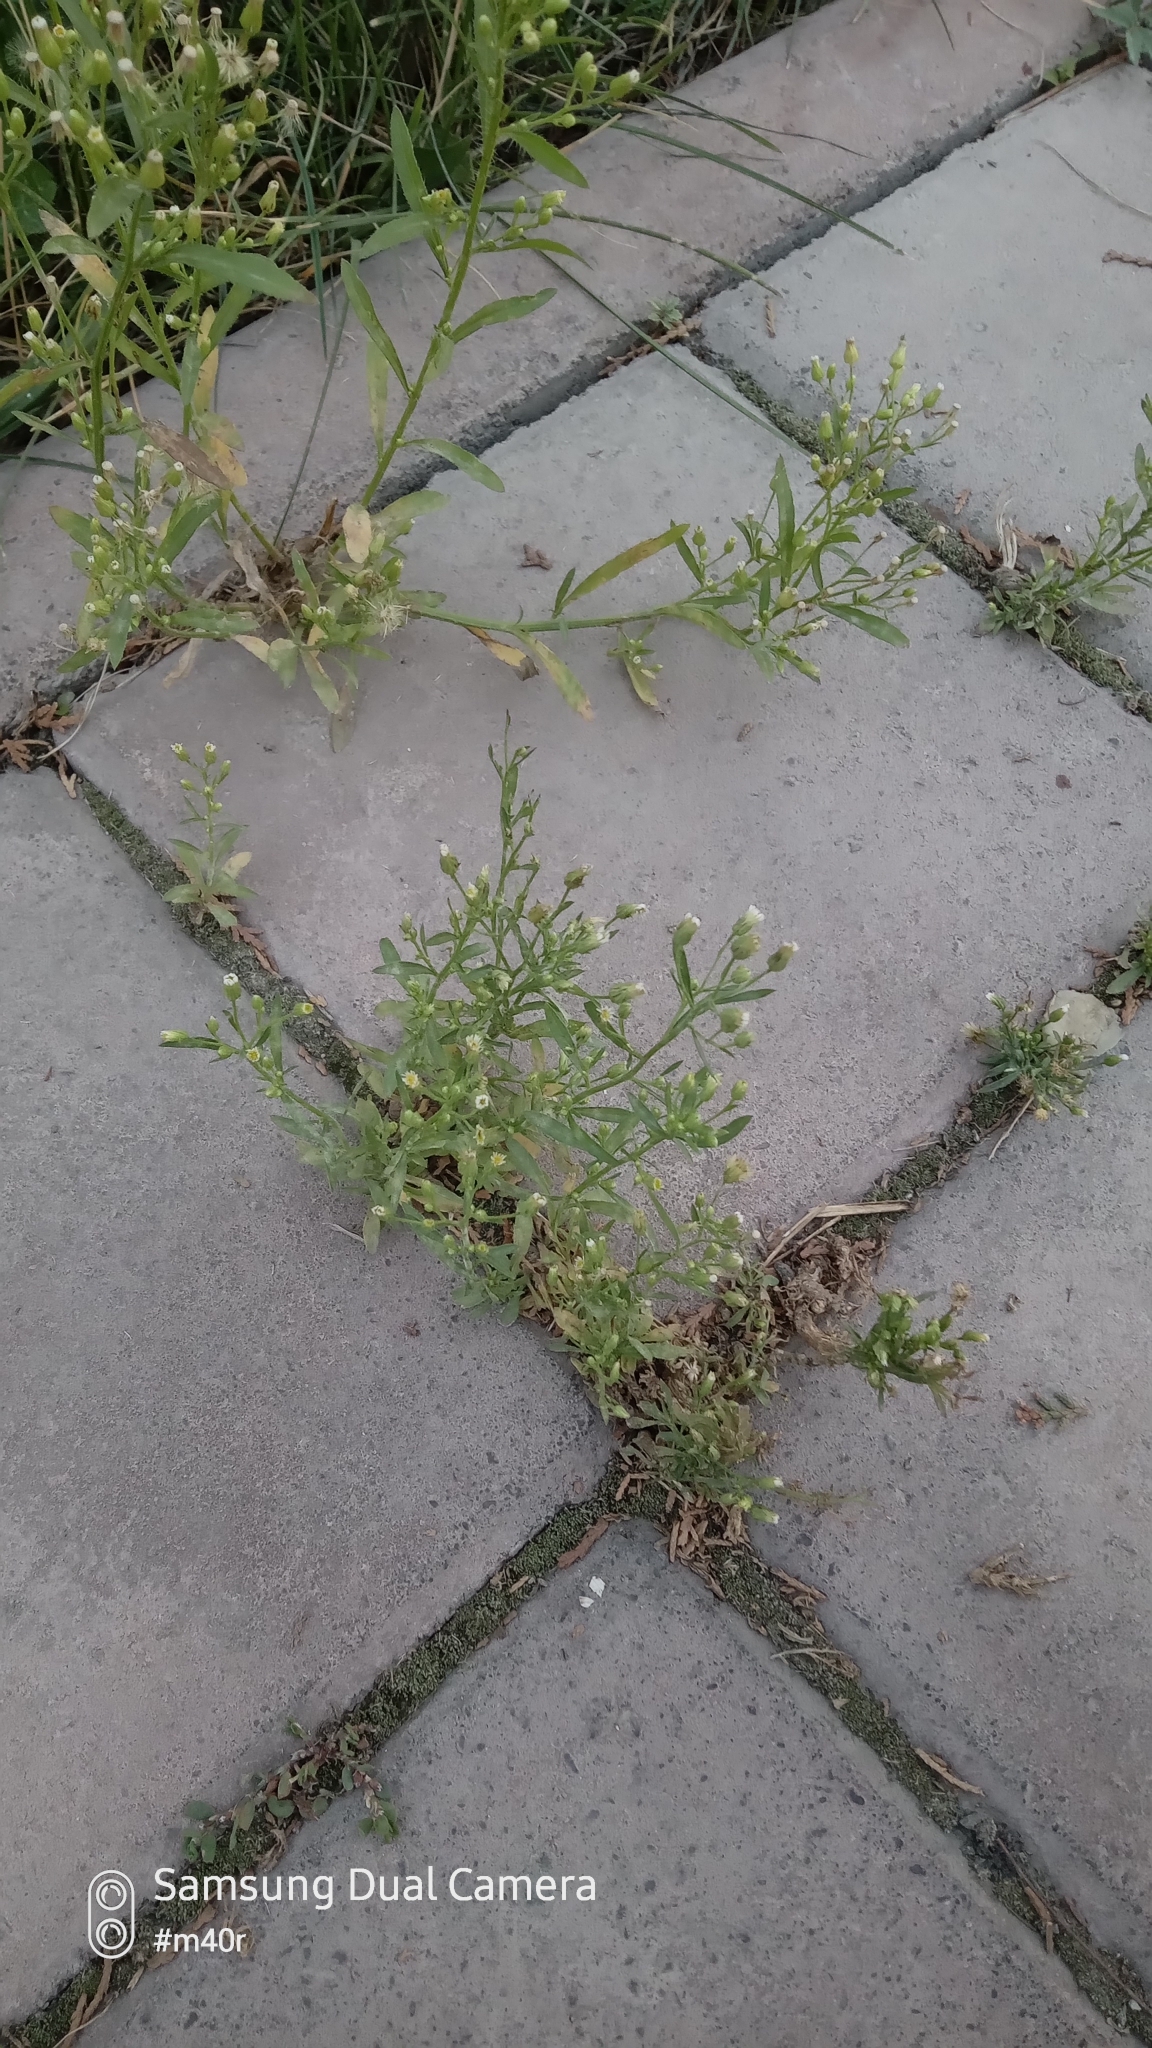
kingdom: Plantae
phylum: Tracheophyta
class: Magnoliopsida
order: Asterales
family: Asteraceae
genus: Erigeron
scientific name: Erigeron canadensis
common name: Canadian fleabane
